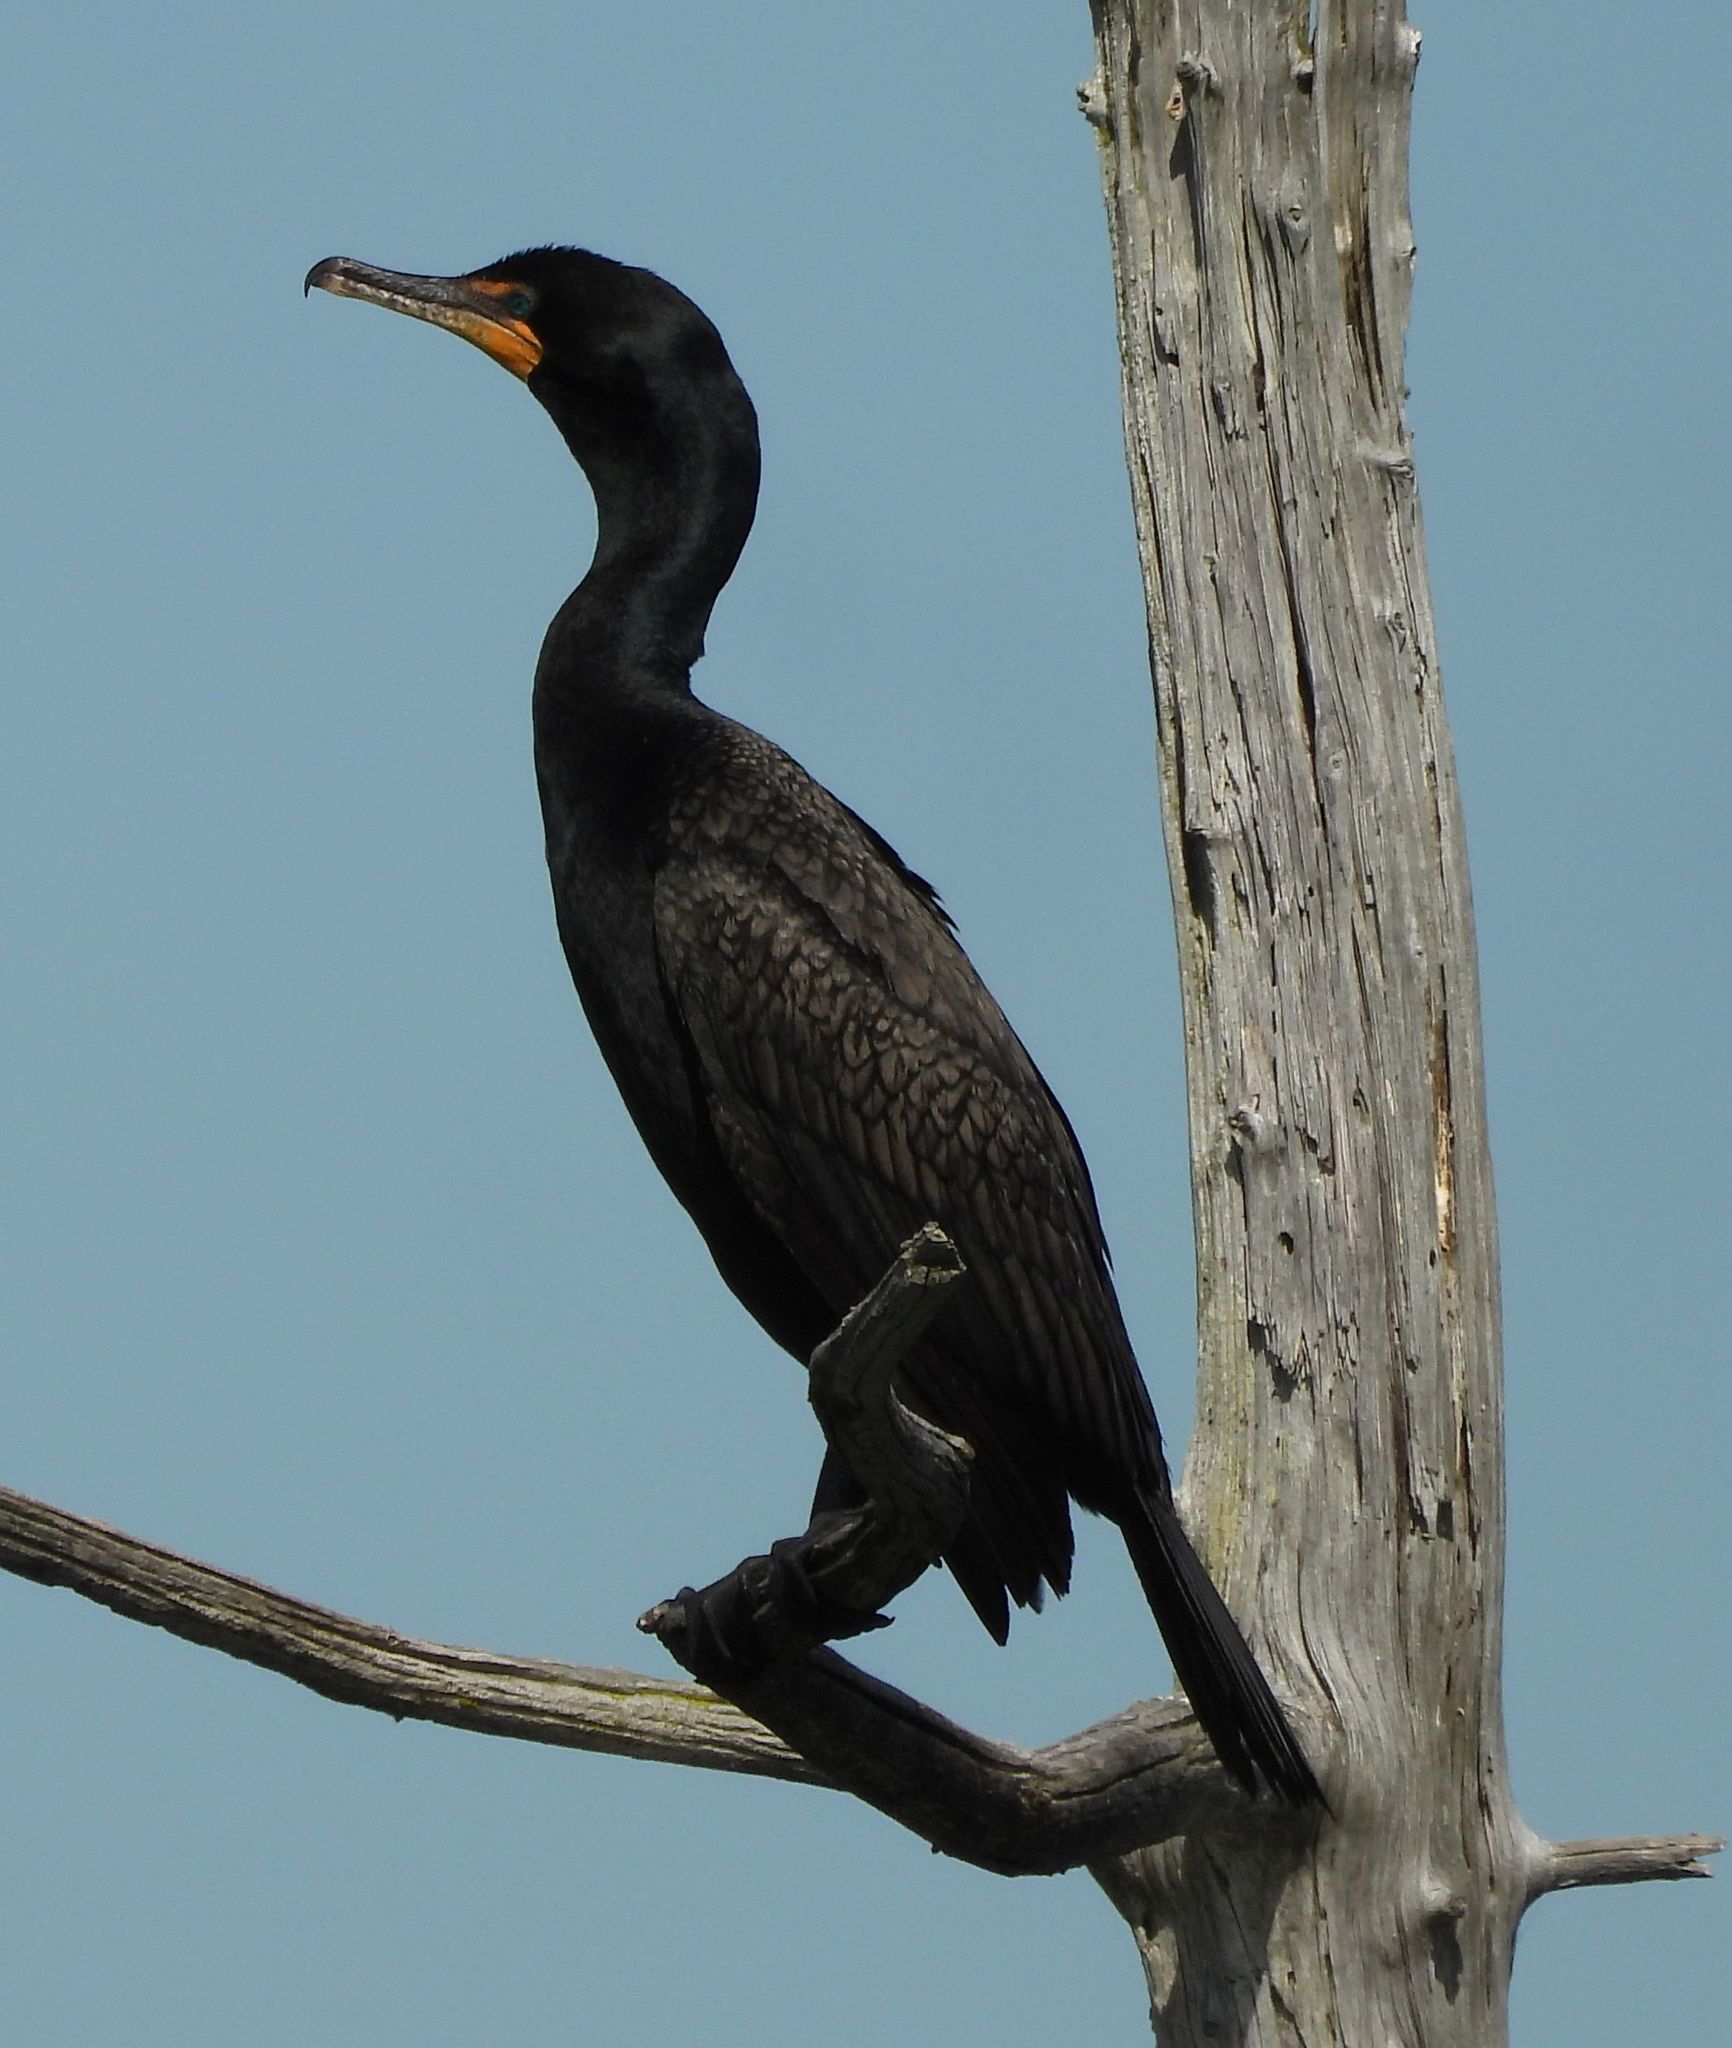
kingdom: Animalia
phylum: Chordata
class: Aves
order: Suliformes
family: Phalacrocoracidae
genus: Phalacrocorax
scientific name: Phalacrocorax auritus
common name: Double-crested cormorant
